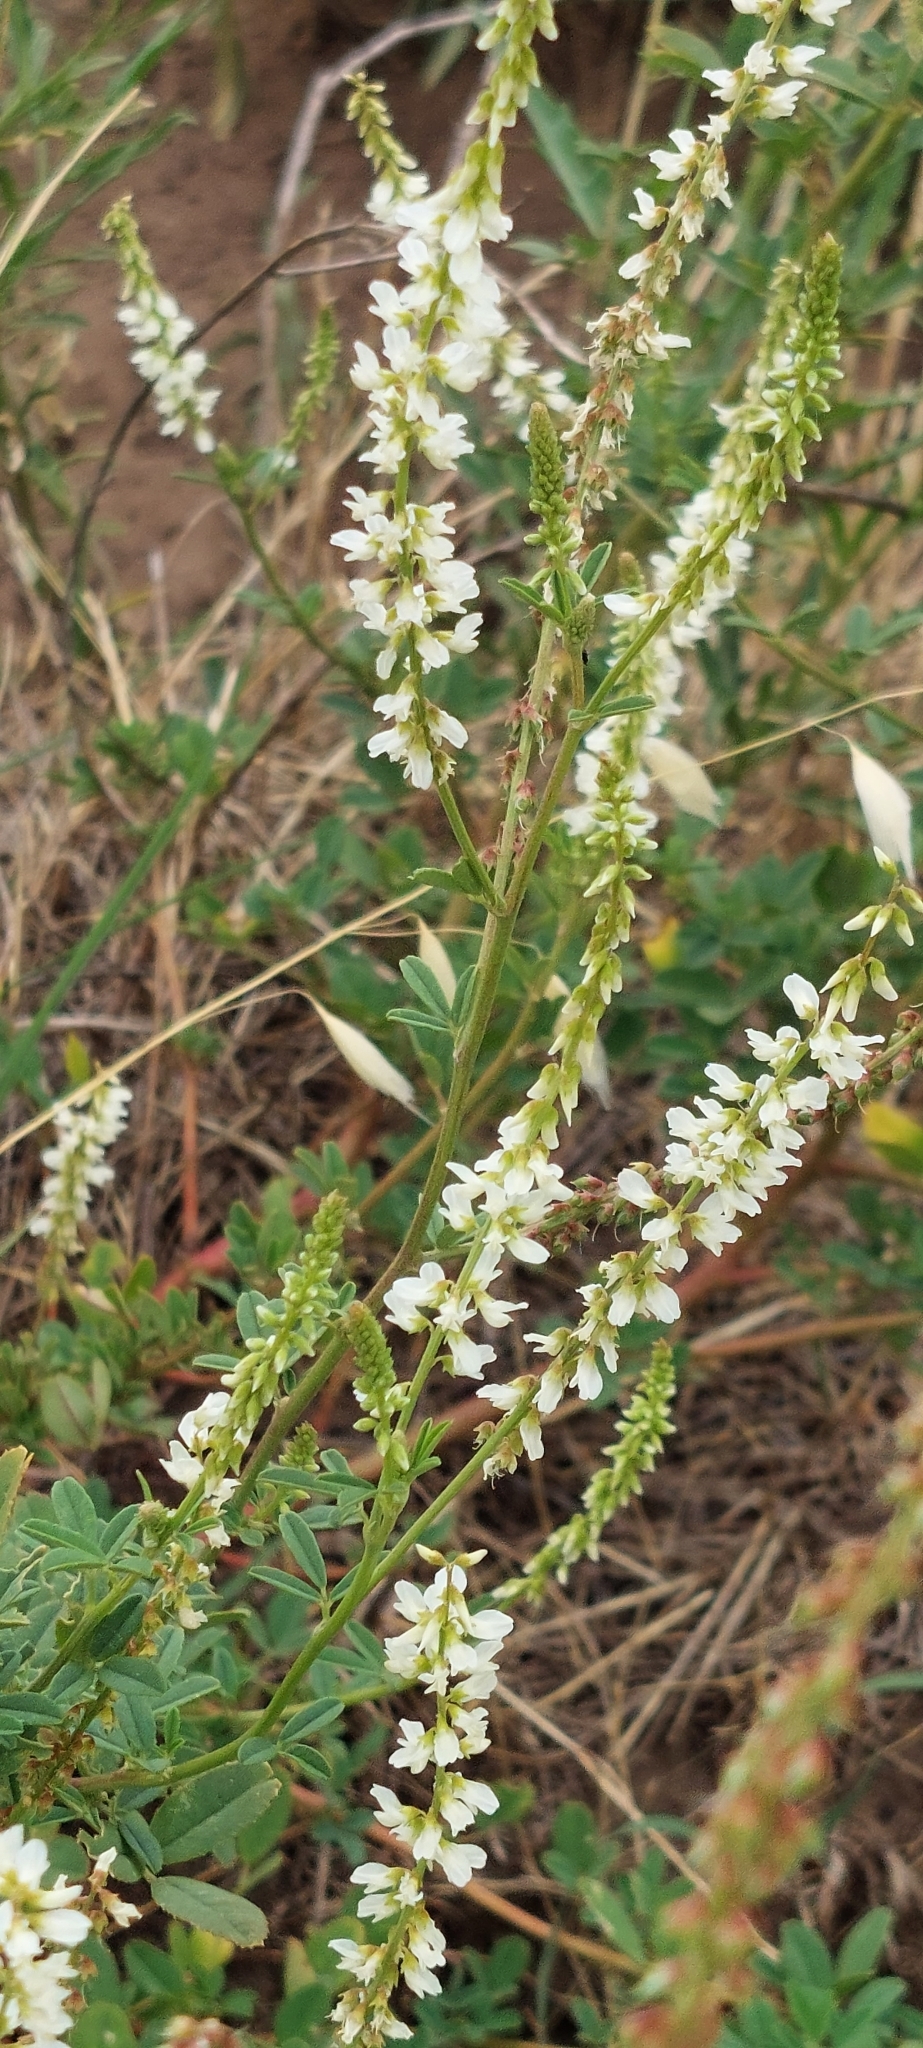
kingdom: Plantae
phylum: Tracheophyta
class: Magnoliopsida
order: Fabales
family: Fabaceae
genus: Melilotus
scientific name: Melilotus albus
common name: White melilot
